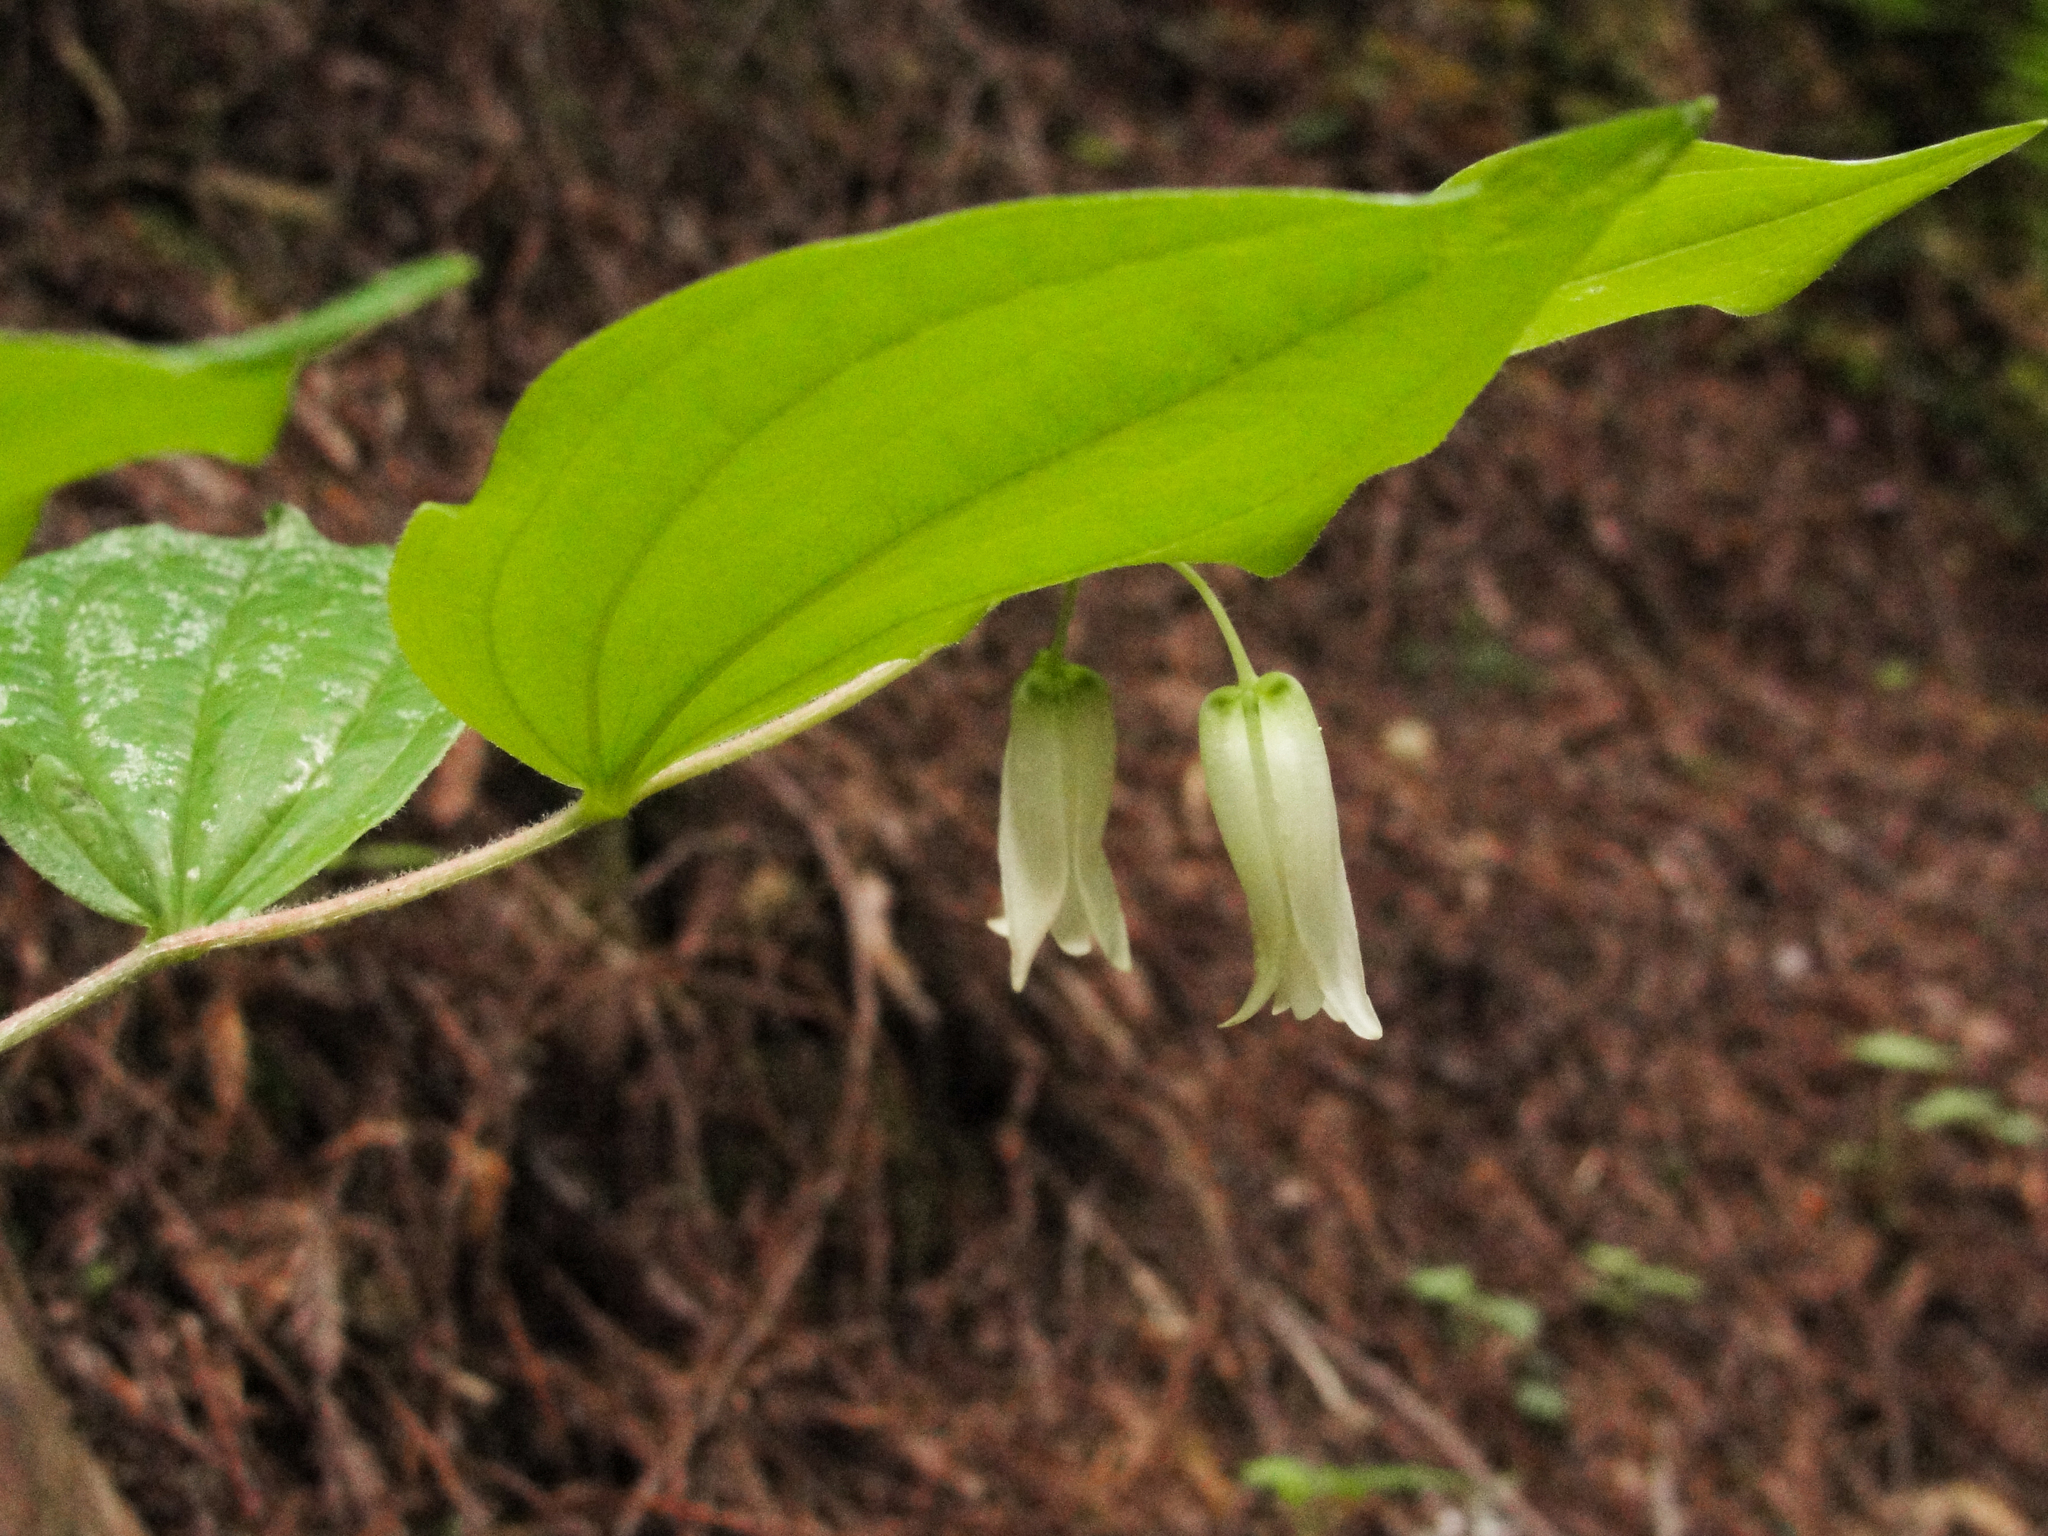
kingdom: Plantae
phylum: Tracheophyta
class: Liliopsida
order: Liliales
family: Liliaceae
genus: Prosartes
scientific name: Prosartes smithii
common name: Fairy-lantern
